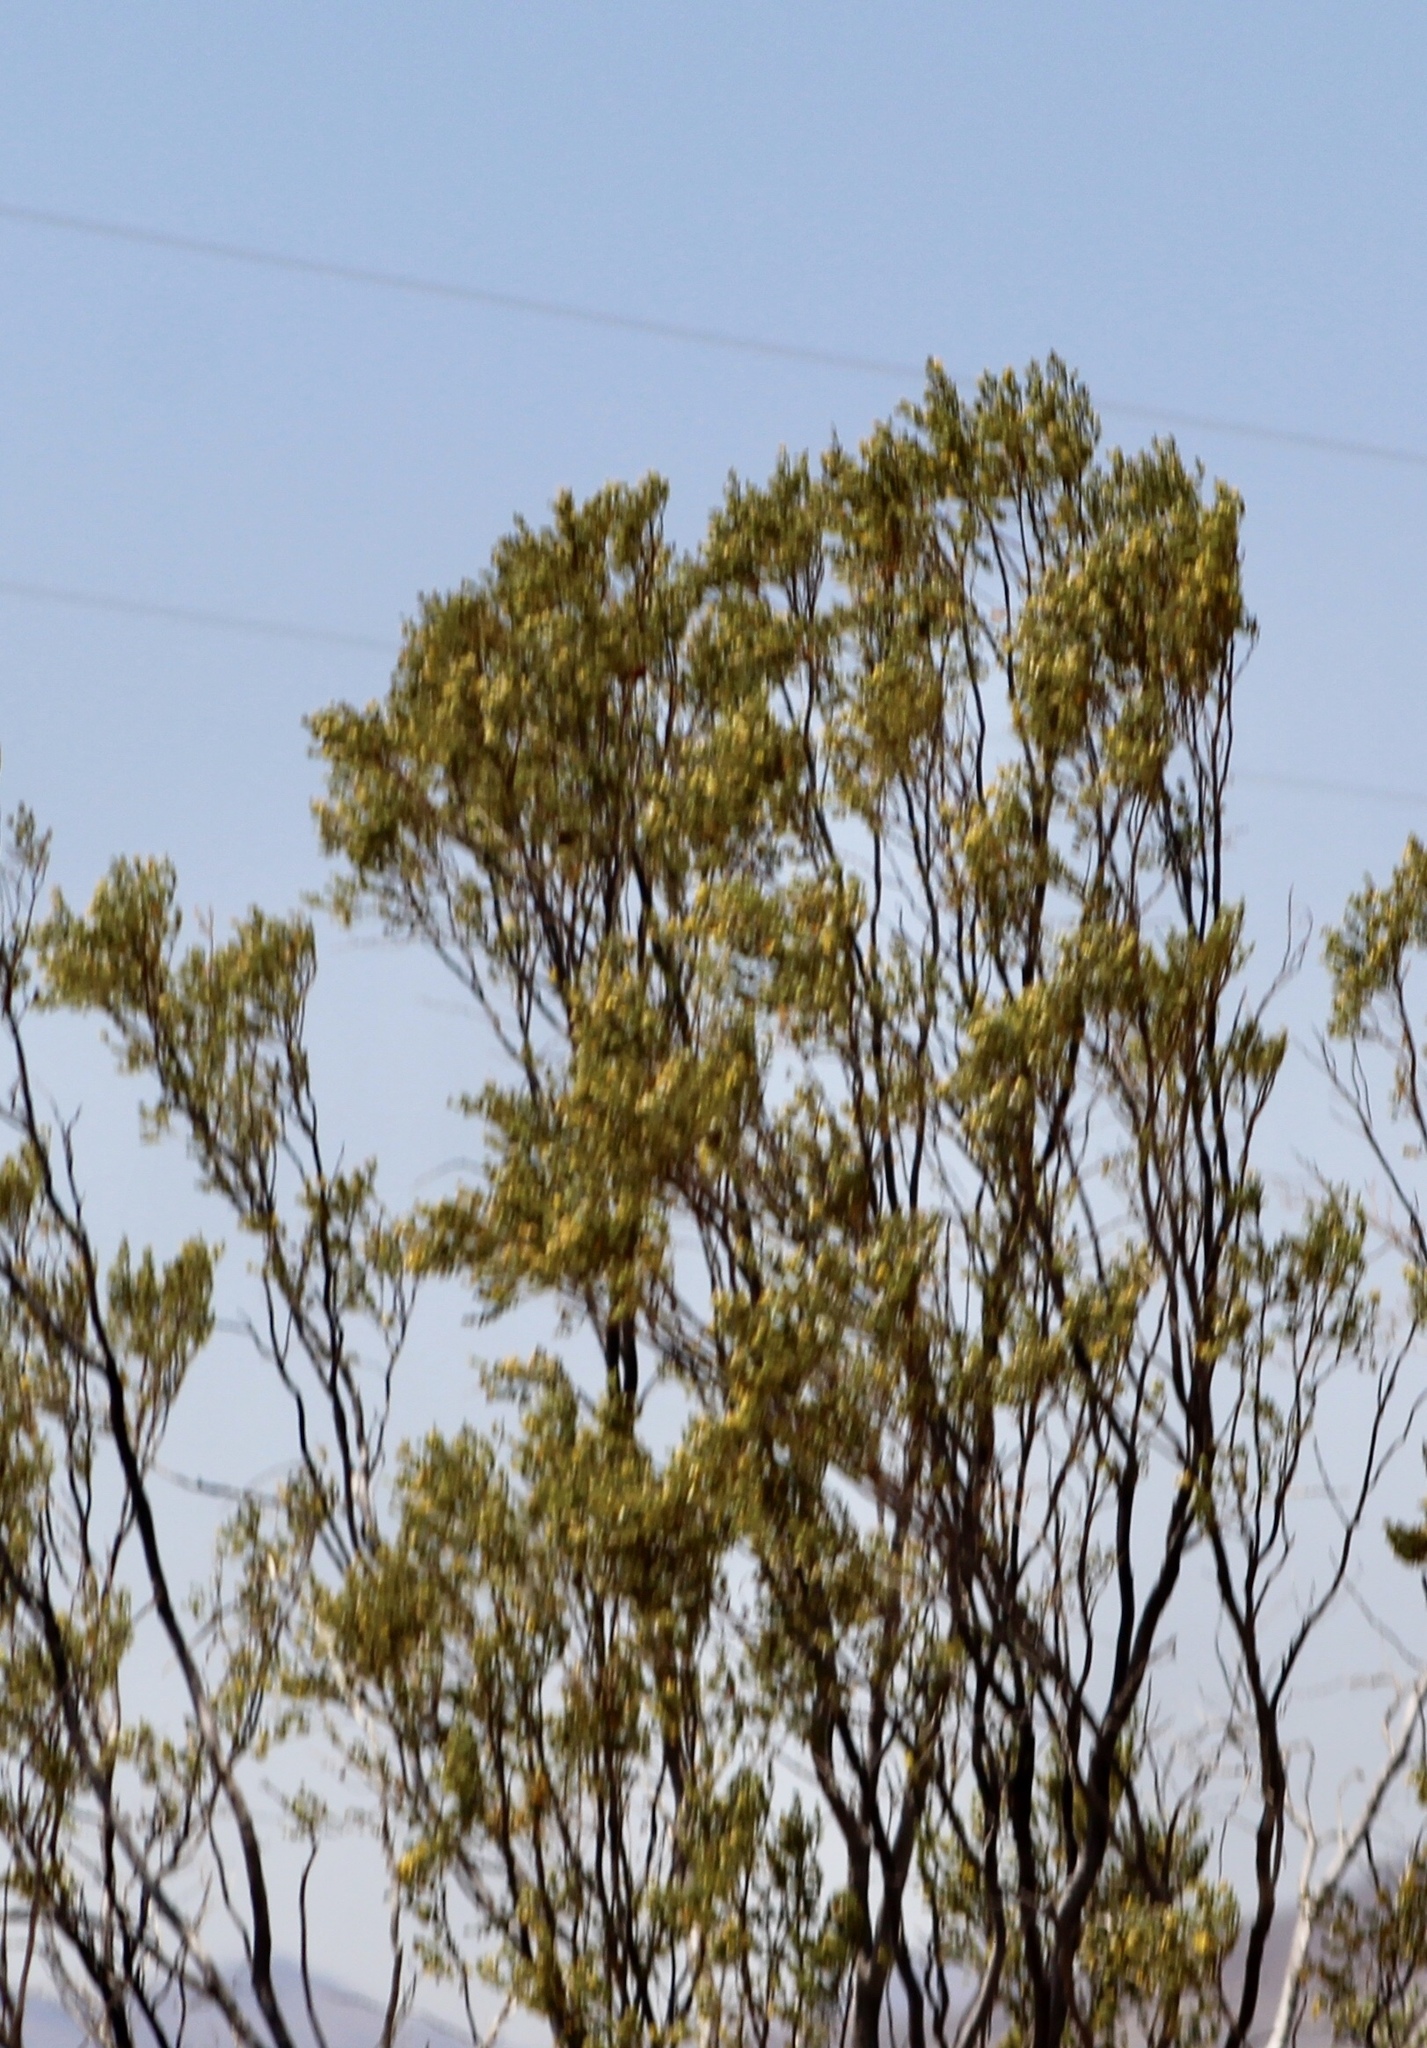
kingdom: Plantae
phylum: Tracheophyta
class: Magnoliopsida
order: Zygophyllales
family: Zygophyllaceae
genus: Larrea
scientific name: Larrea tridentata
